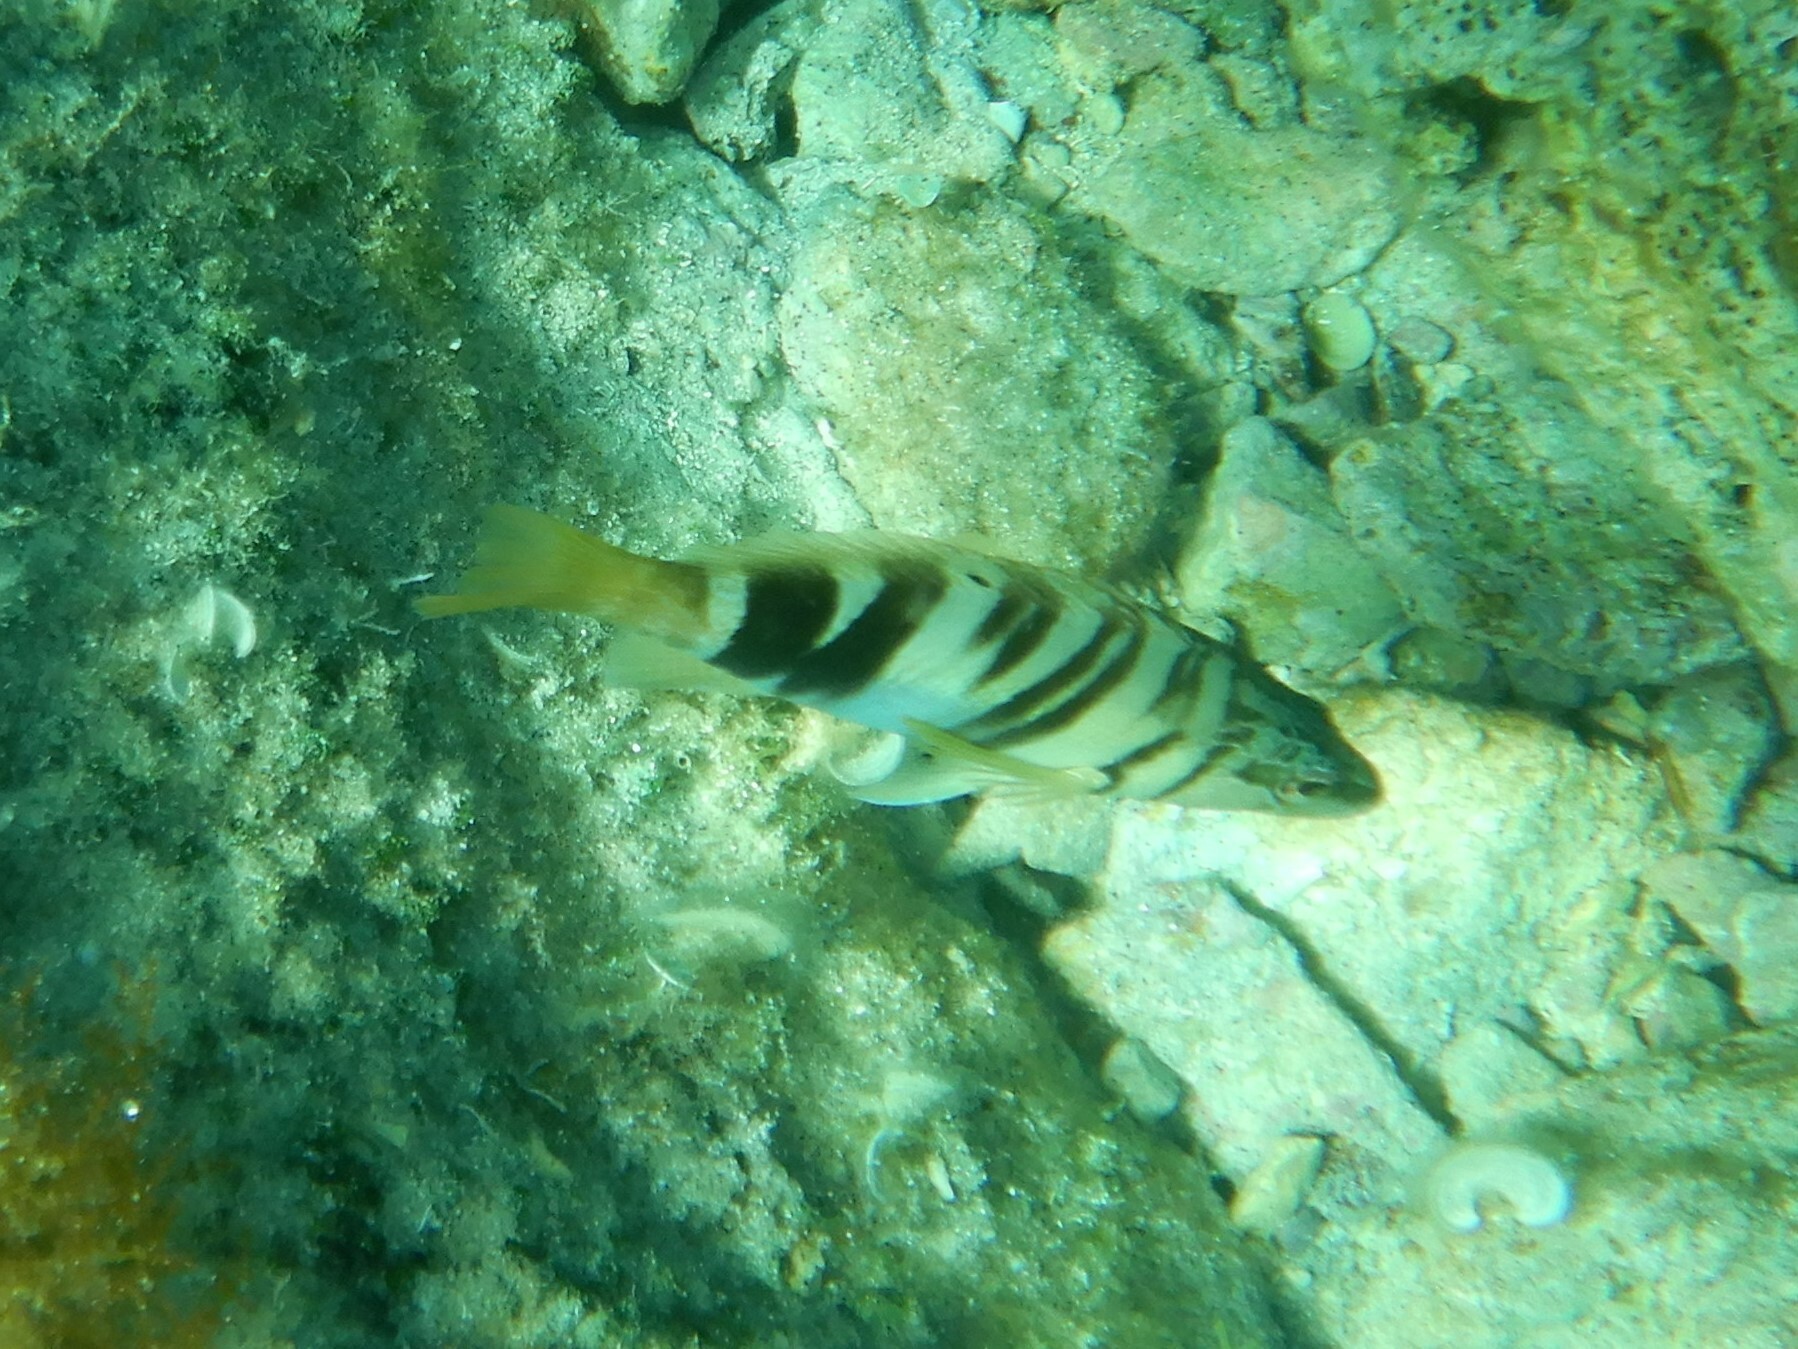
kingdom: Animalia
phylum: Chordata
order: Perciformes
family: Serranidae
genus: Serranus
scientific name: Serranus scriba
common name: Painted comber
